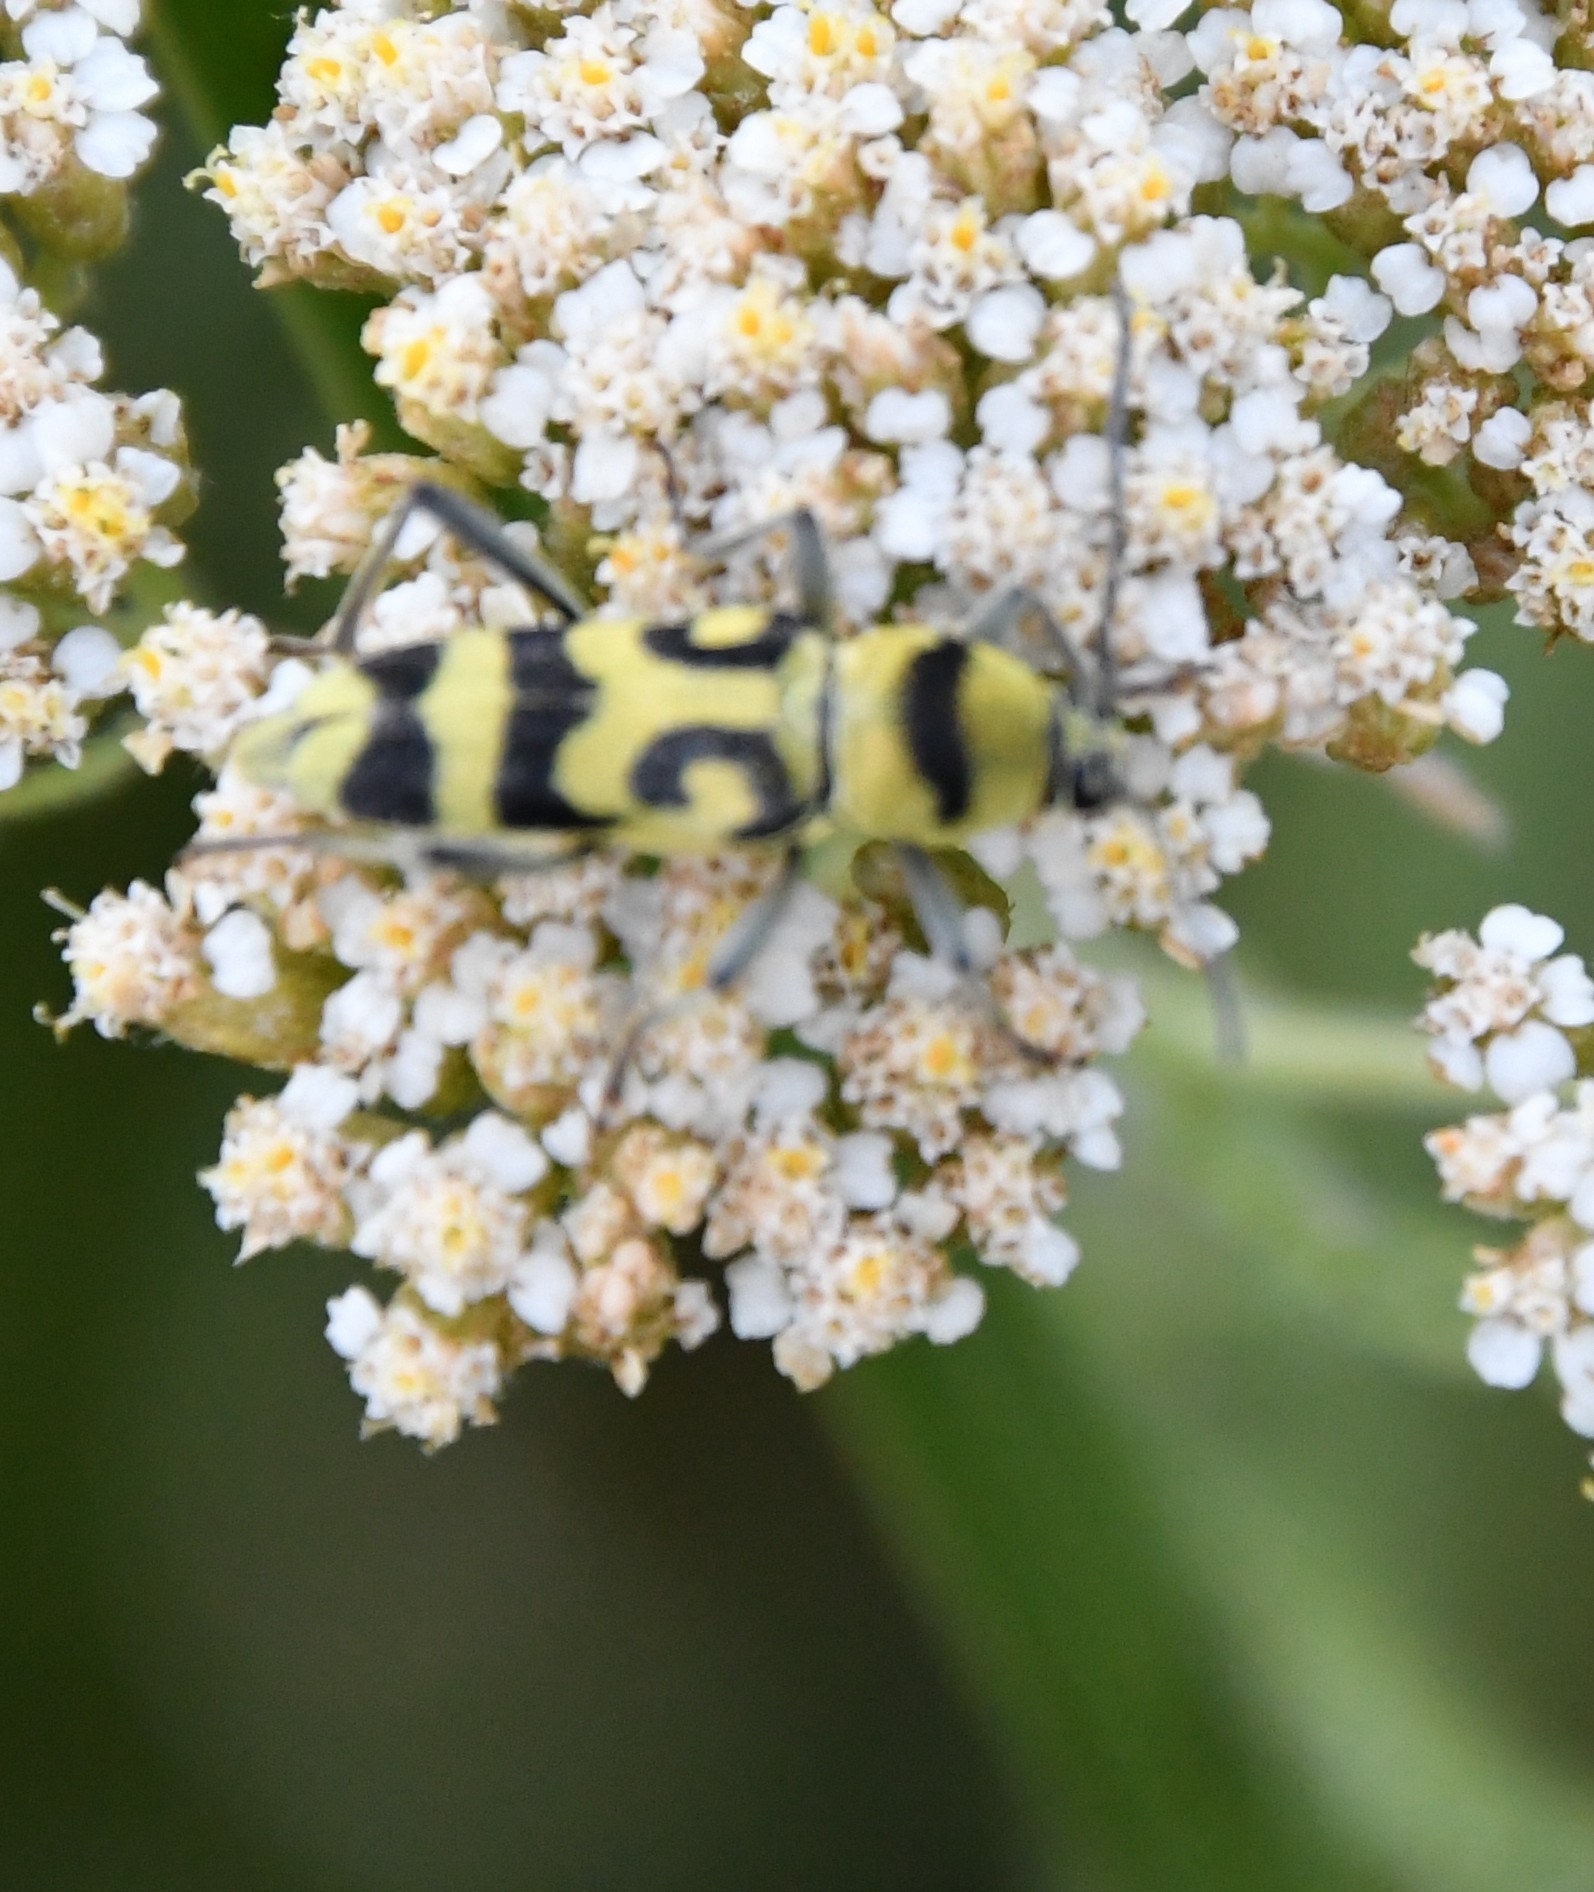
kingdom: Animalia
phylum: Arthropoda
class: Insecta
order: Coleoptera
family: Cerambycidae
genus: Chlorophorus
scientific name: Chlorophorus varius
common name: Grape wood borer
